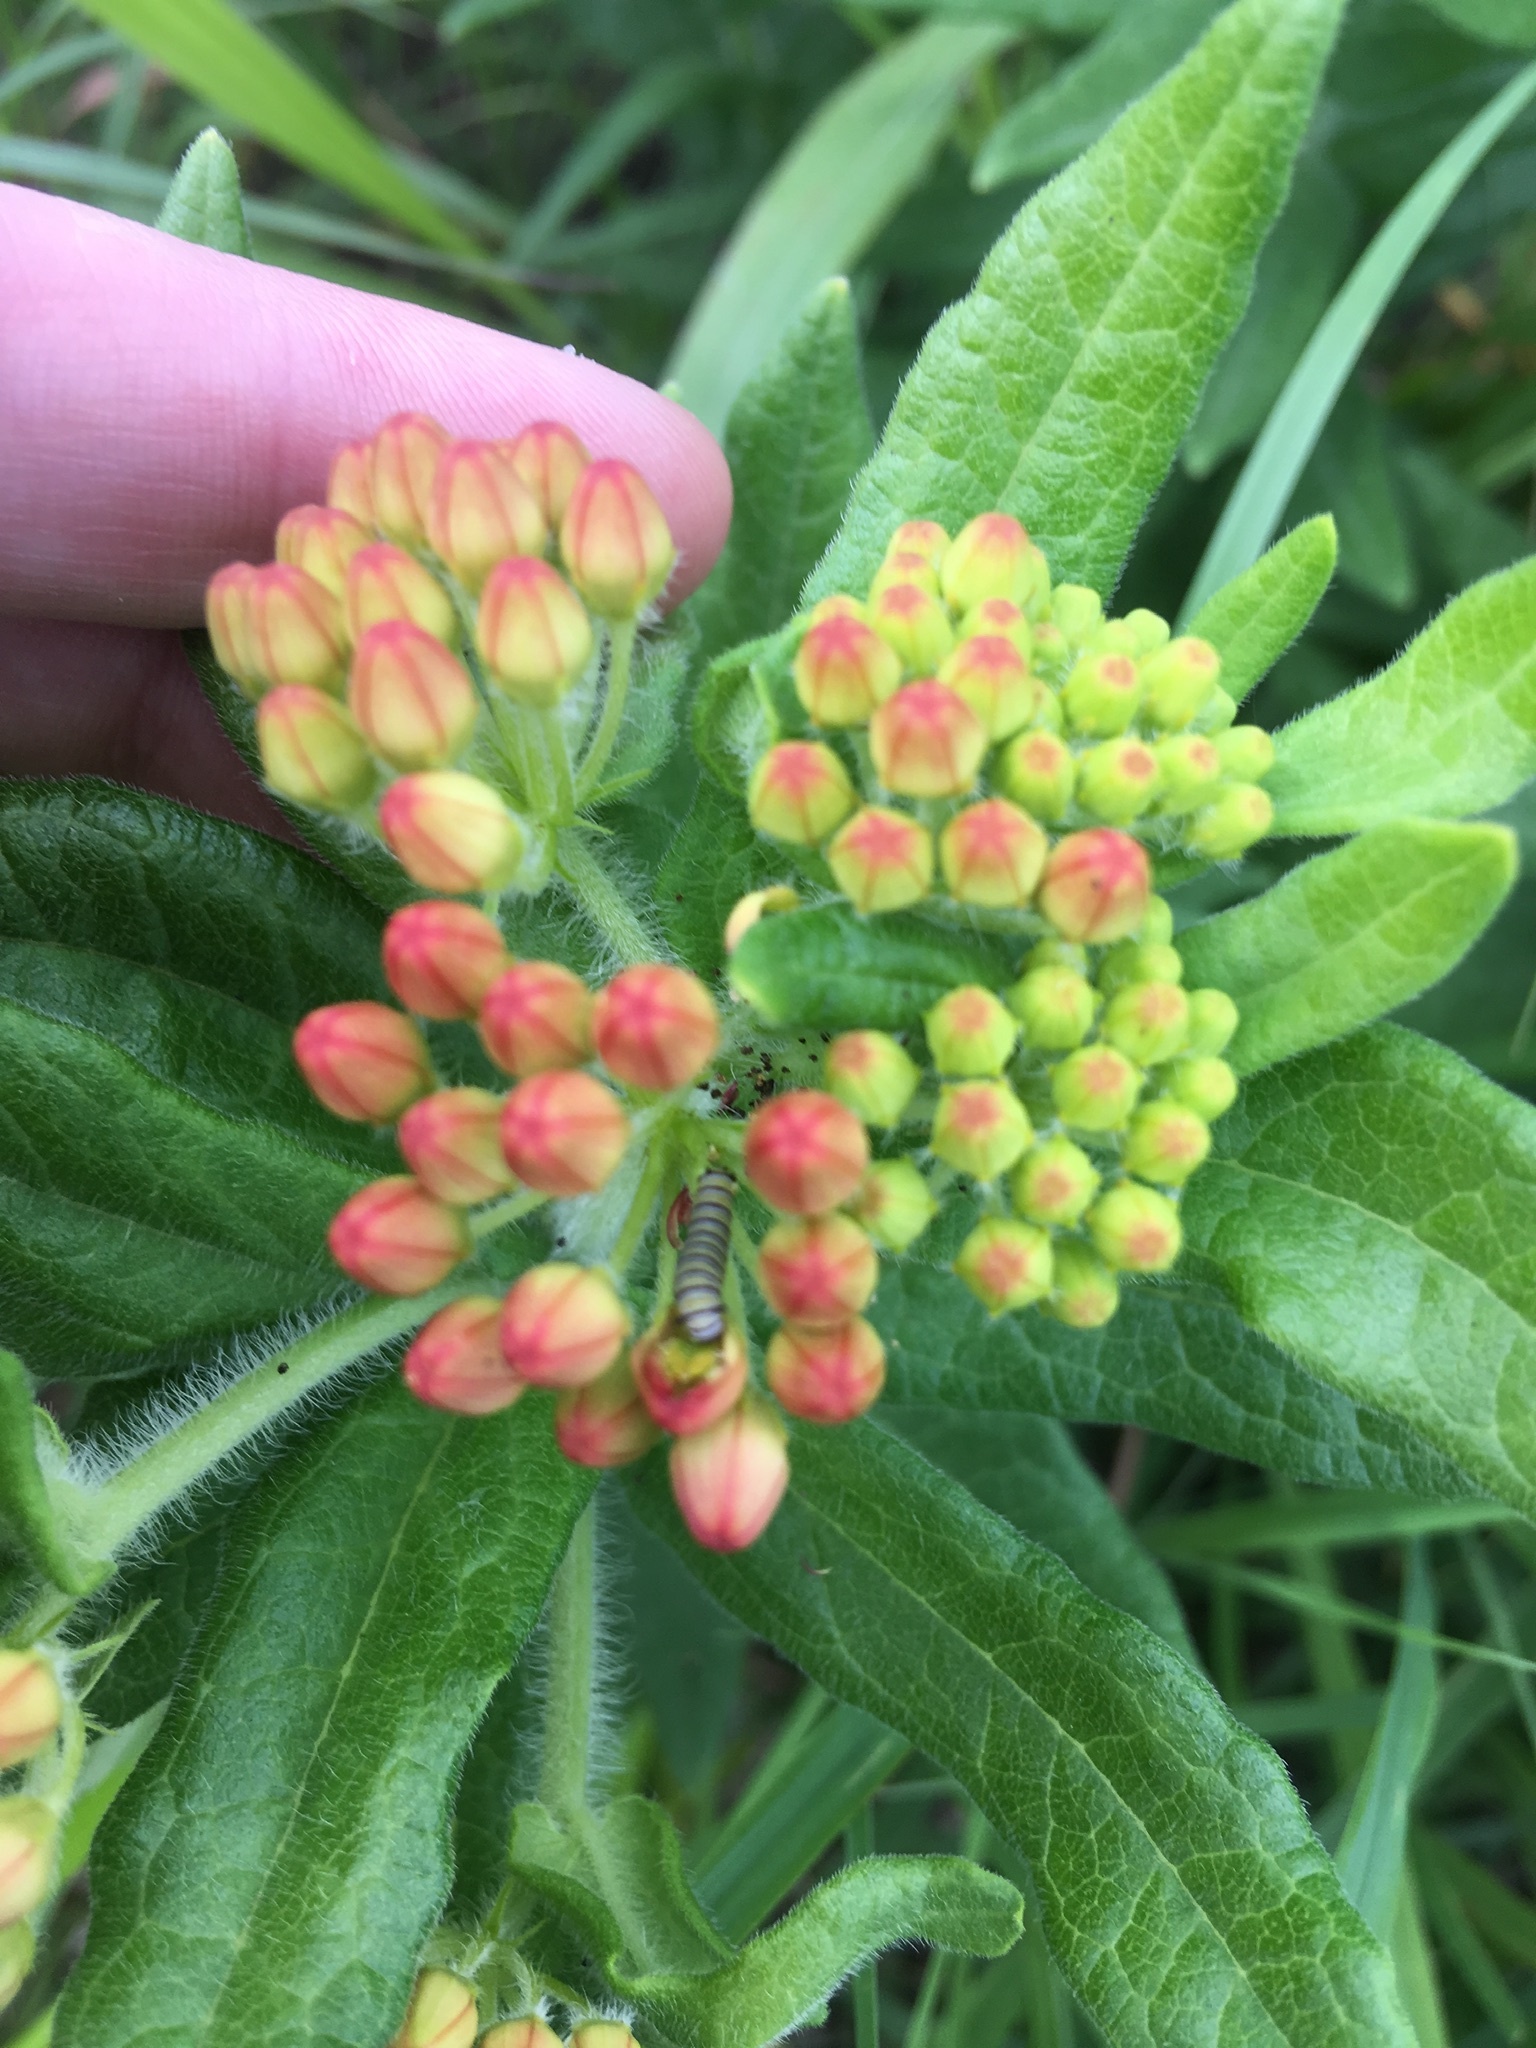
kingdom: Plantae
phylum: Tracheophyta
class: Magnoliopsida
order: Gentianales
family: Apocynaceae
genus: Asclepias
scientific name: Asclepias tuberosa
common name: Butterfly milkweed
